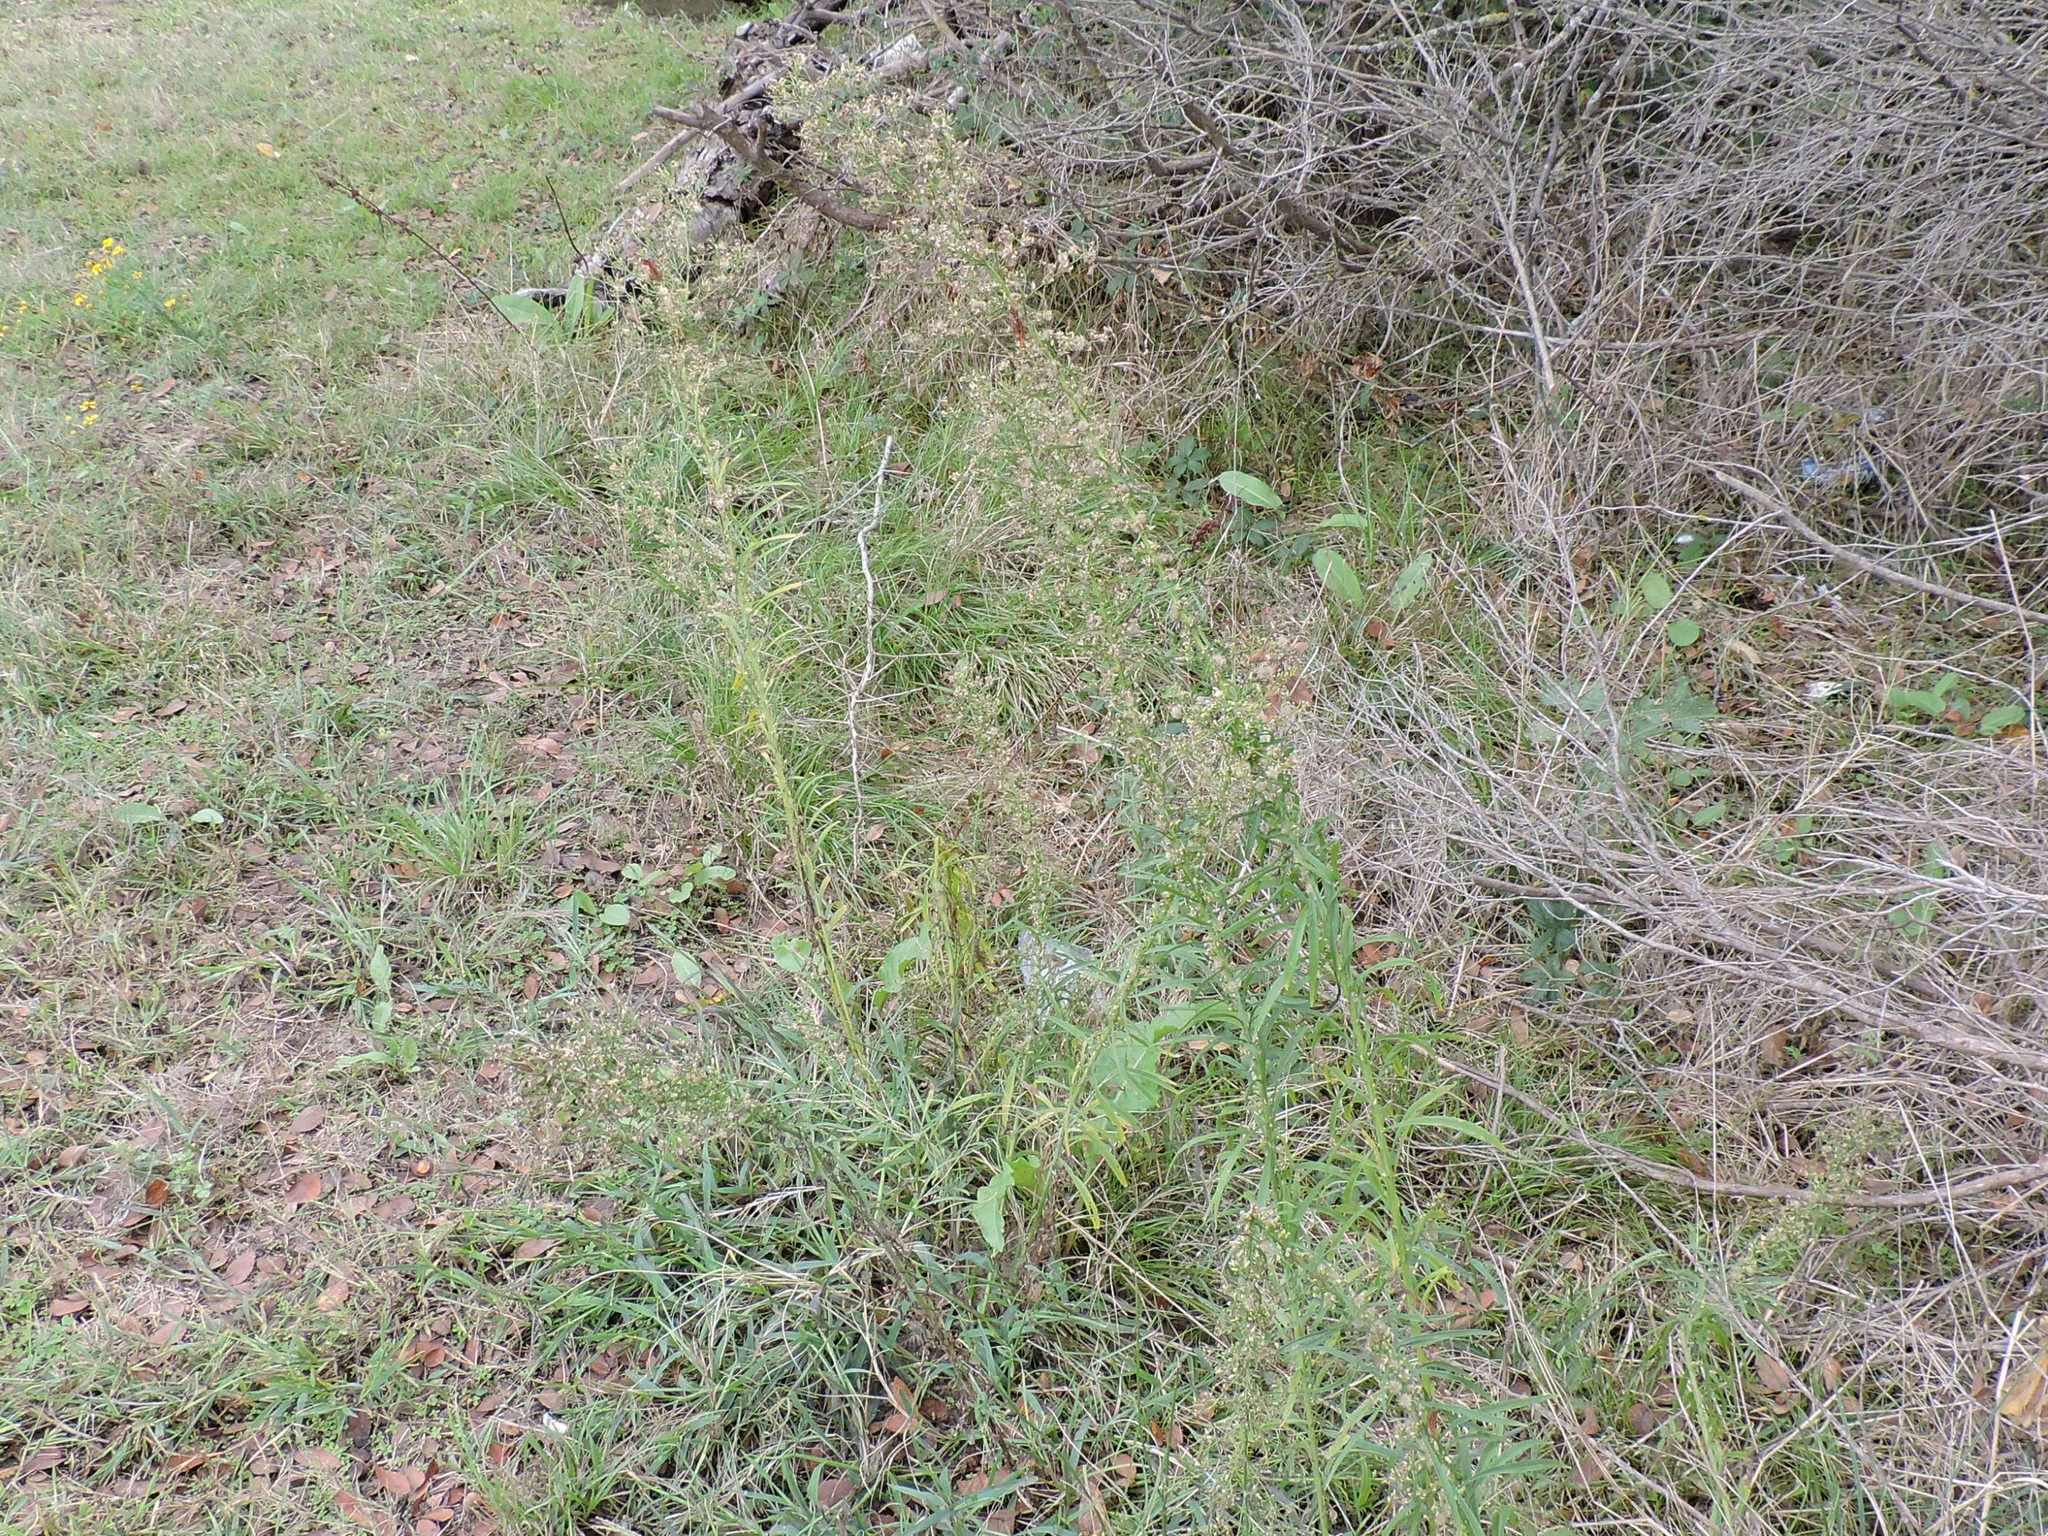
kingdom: Plantae
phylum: Tracheophyta
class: Magnoliopsida
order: Asterales
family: Asteraceae
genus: Erigeron
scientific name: Erigeron canadensis
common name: Canadian fleabane
